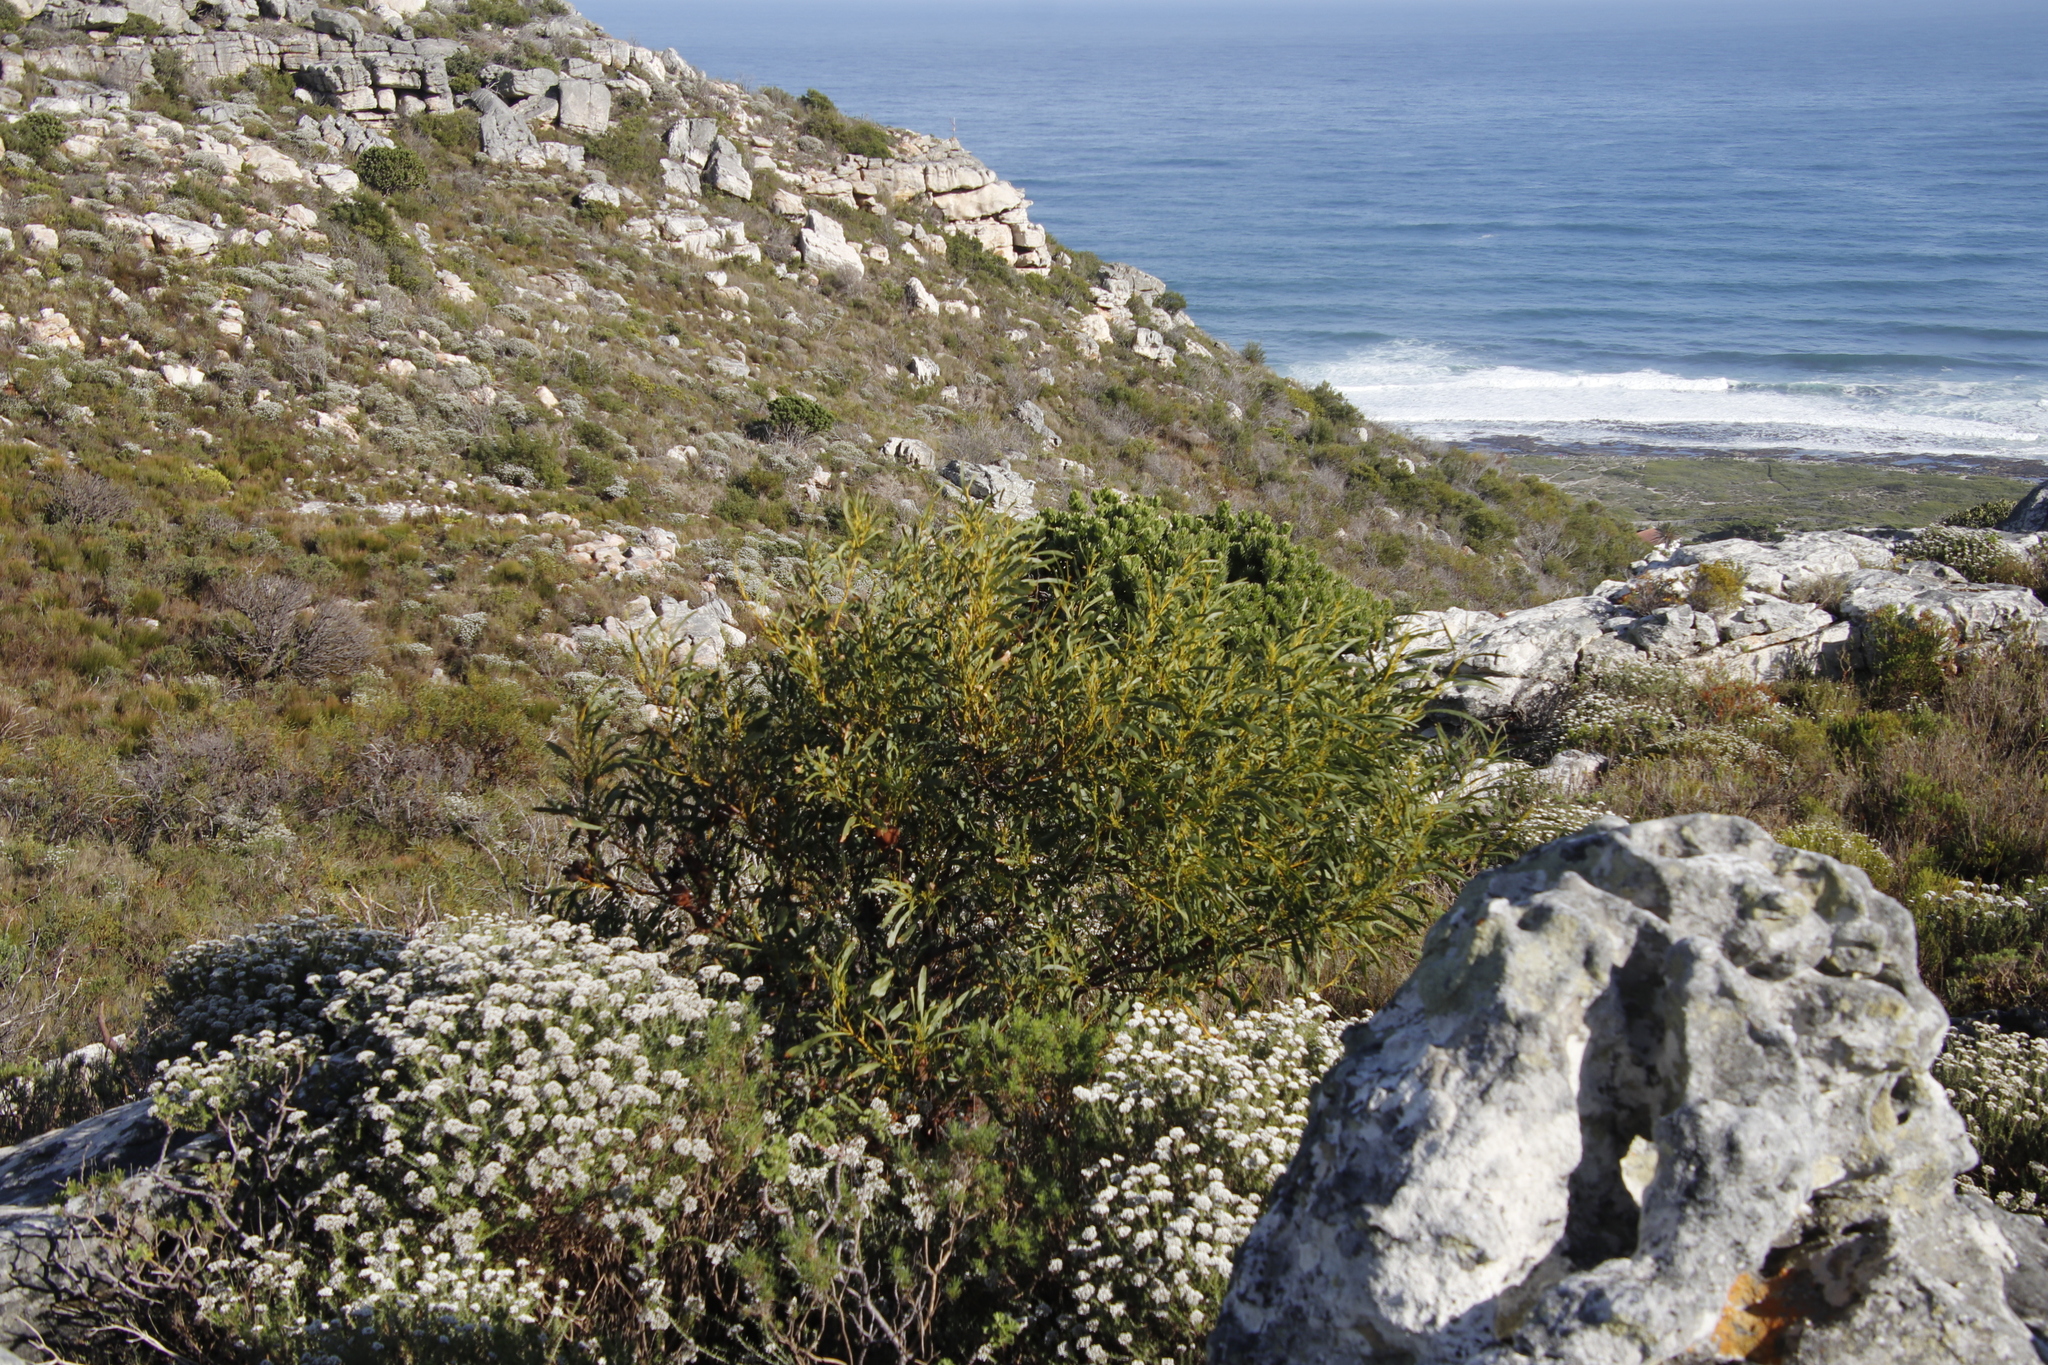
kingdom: Plantae
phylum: Tracheophyta
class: Magnoliopsida
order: Fabales
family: Fabaceae
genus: Acacia
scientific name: Acacia saligna
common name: Orange wattle
